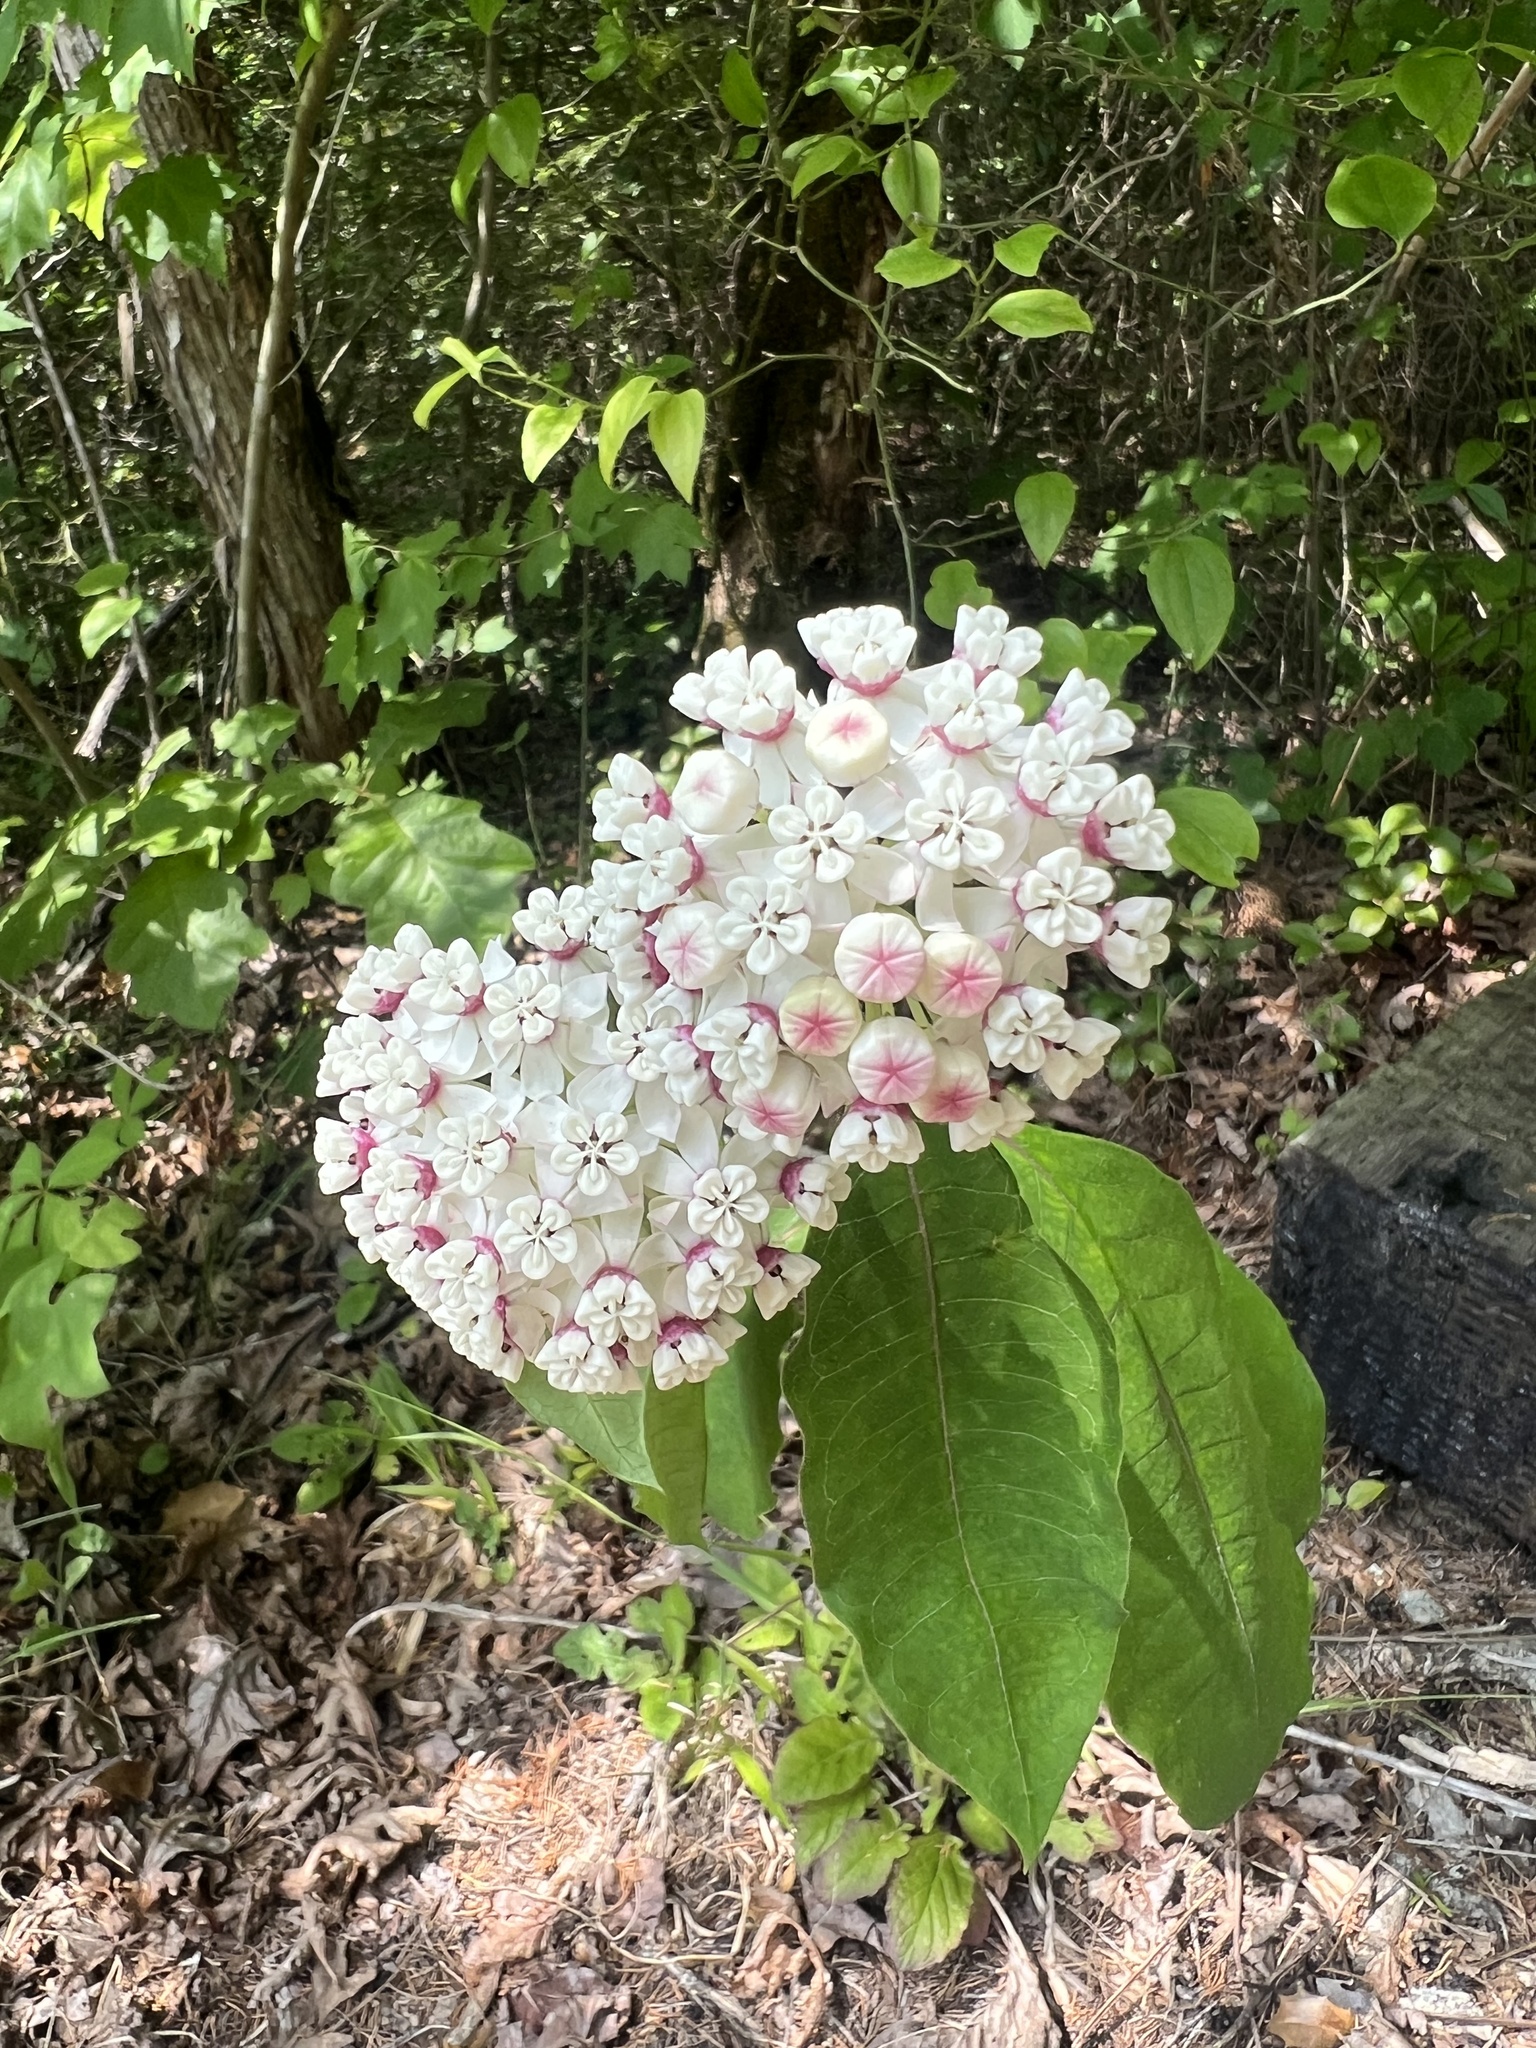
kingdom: Plantae
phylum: Tracheophyta
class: Magnoliopsida
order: Gentianales
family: Apocynaceae
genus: Asclepias
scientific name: Asclepias variegata
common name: Variegated milkweed
